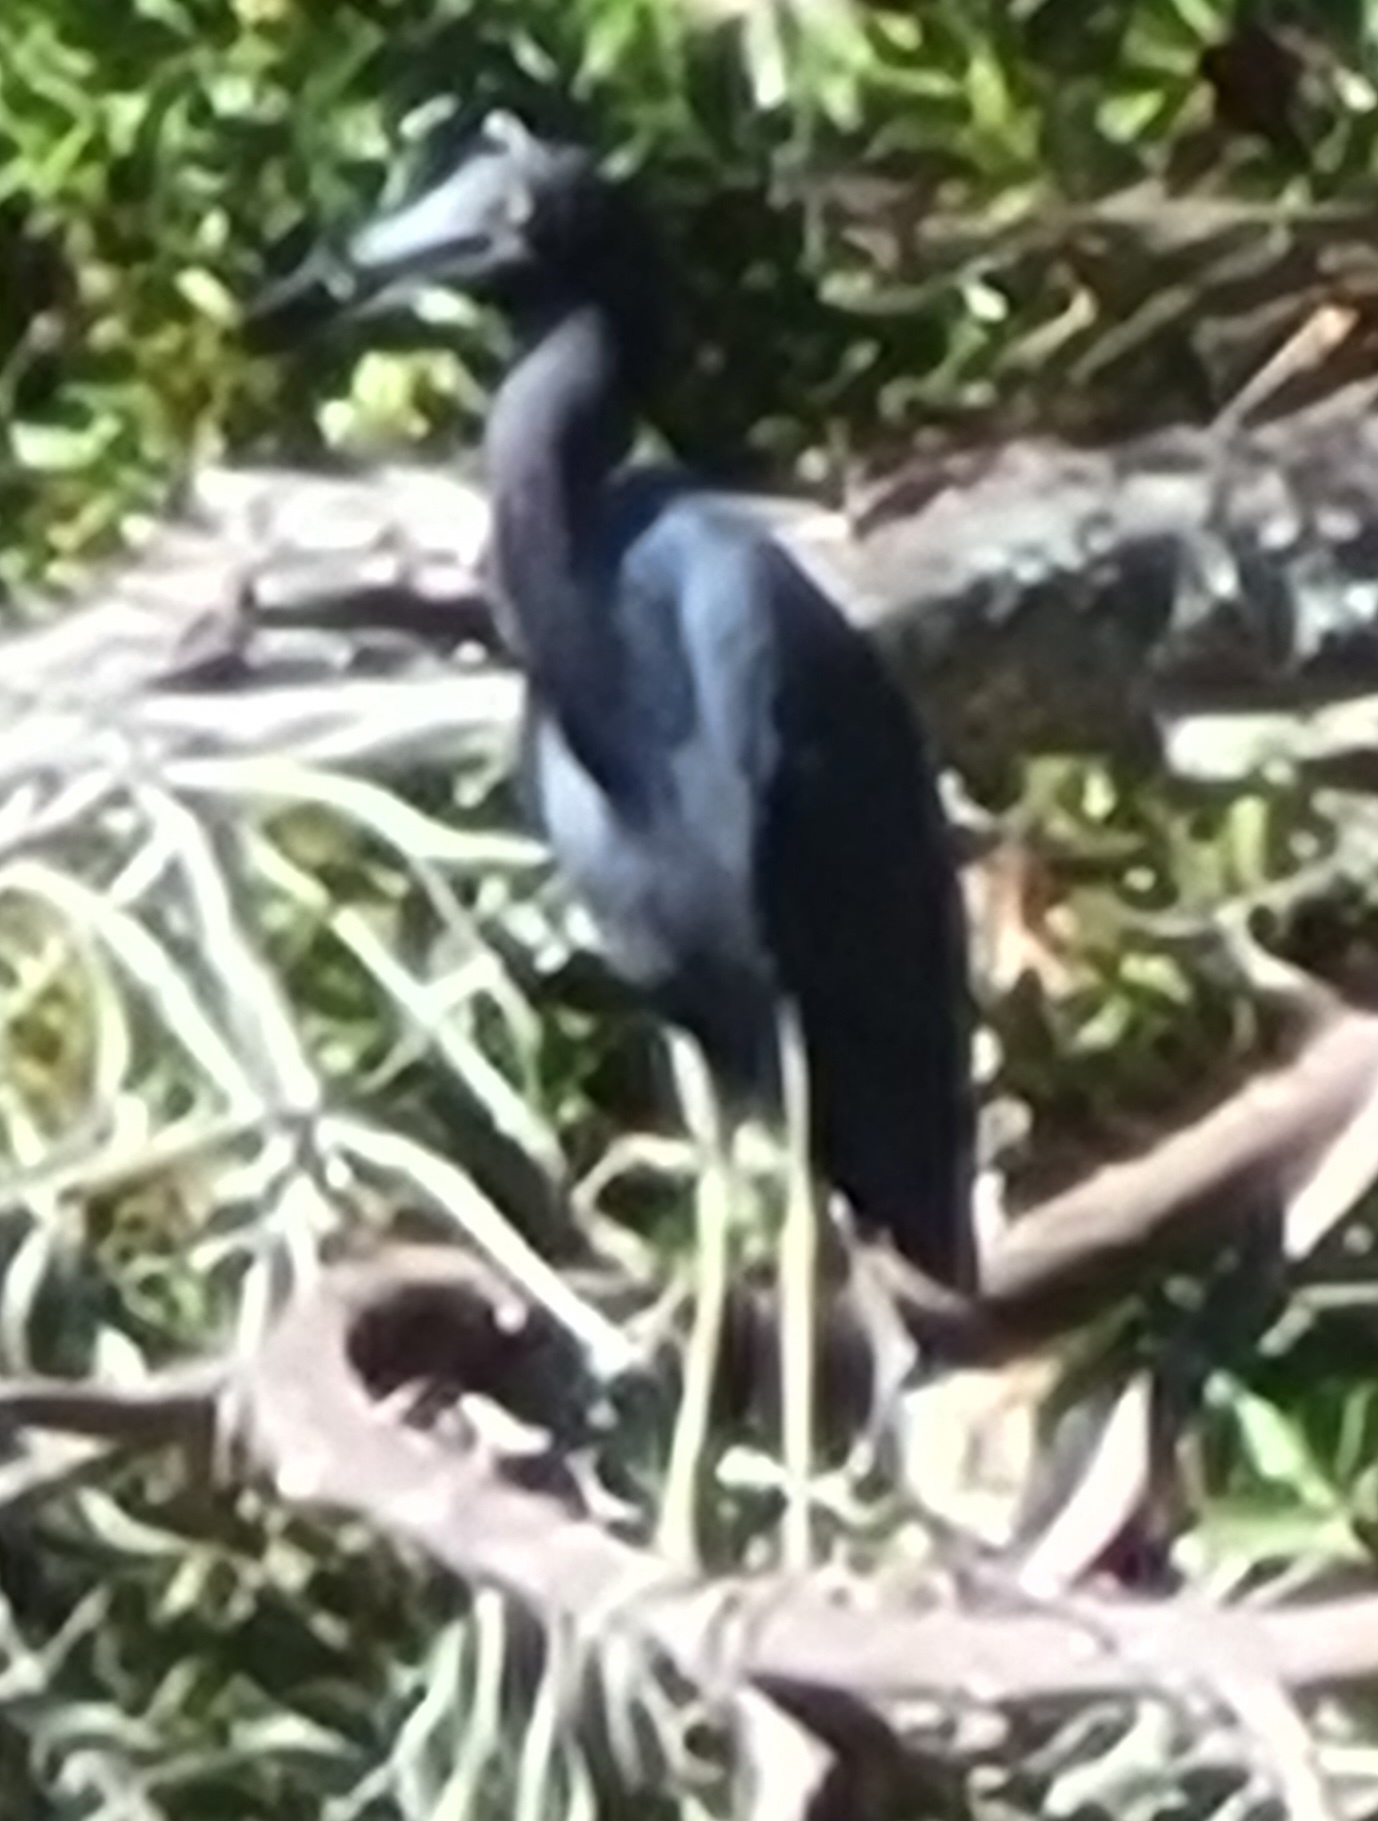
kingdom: Animalia
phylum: Chordata
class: Aves
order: Pelecaniformes
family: Ardeidae
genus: Egretta
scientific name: Egretta caerulea
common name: Little blue heron
